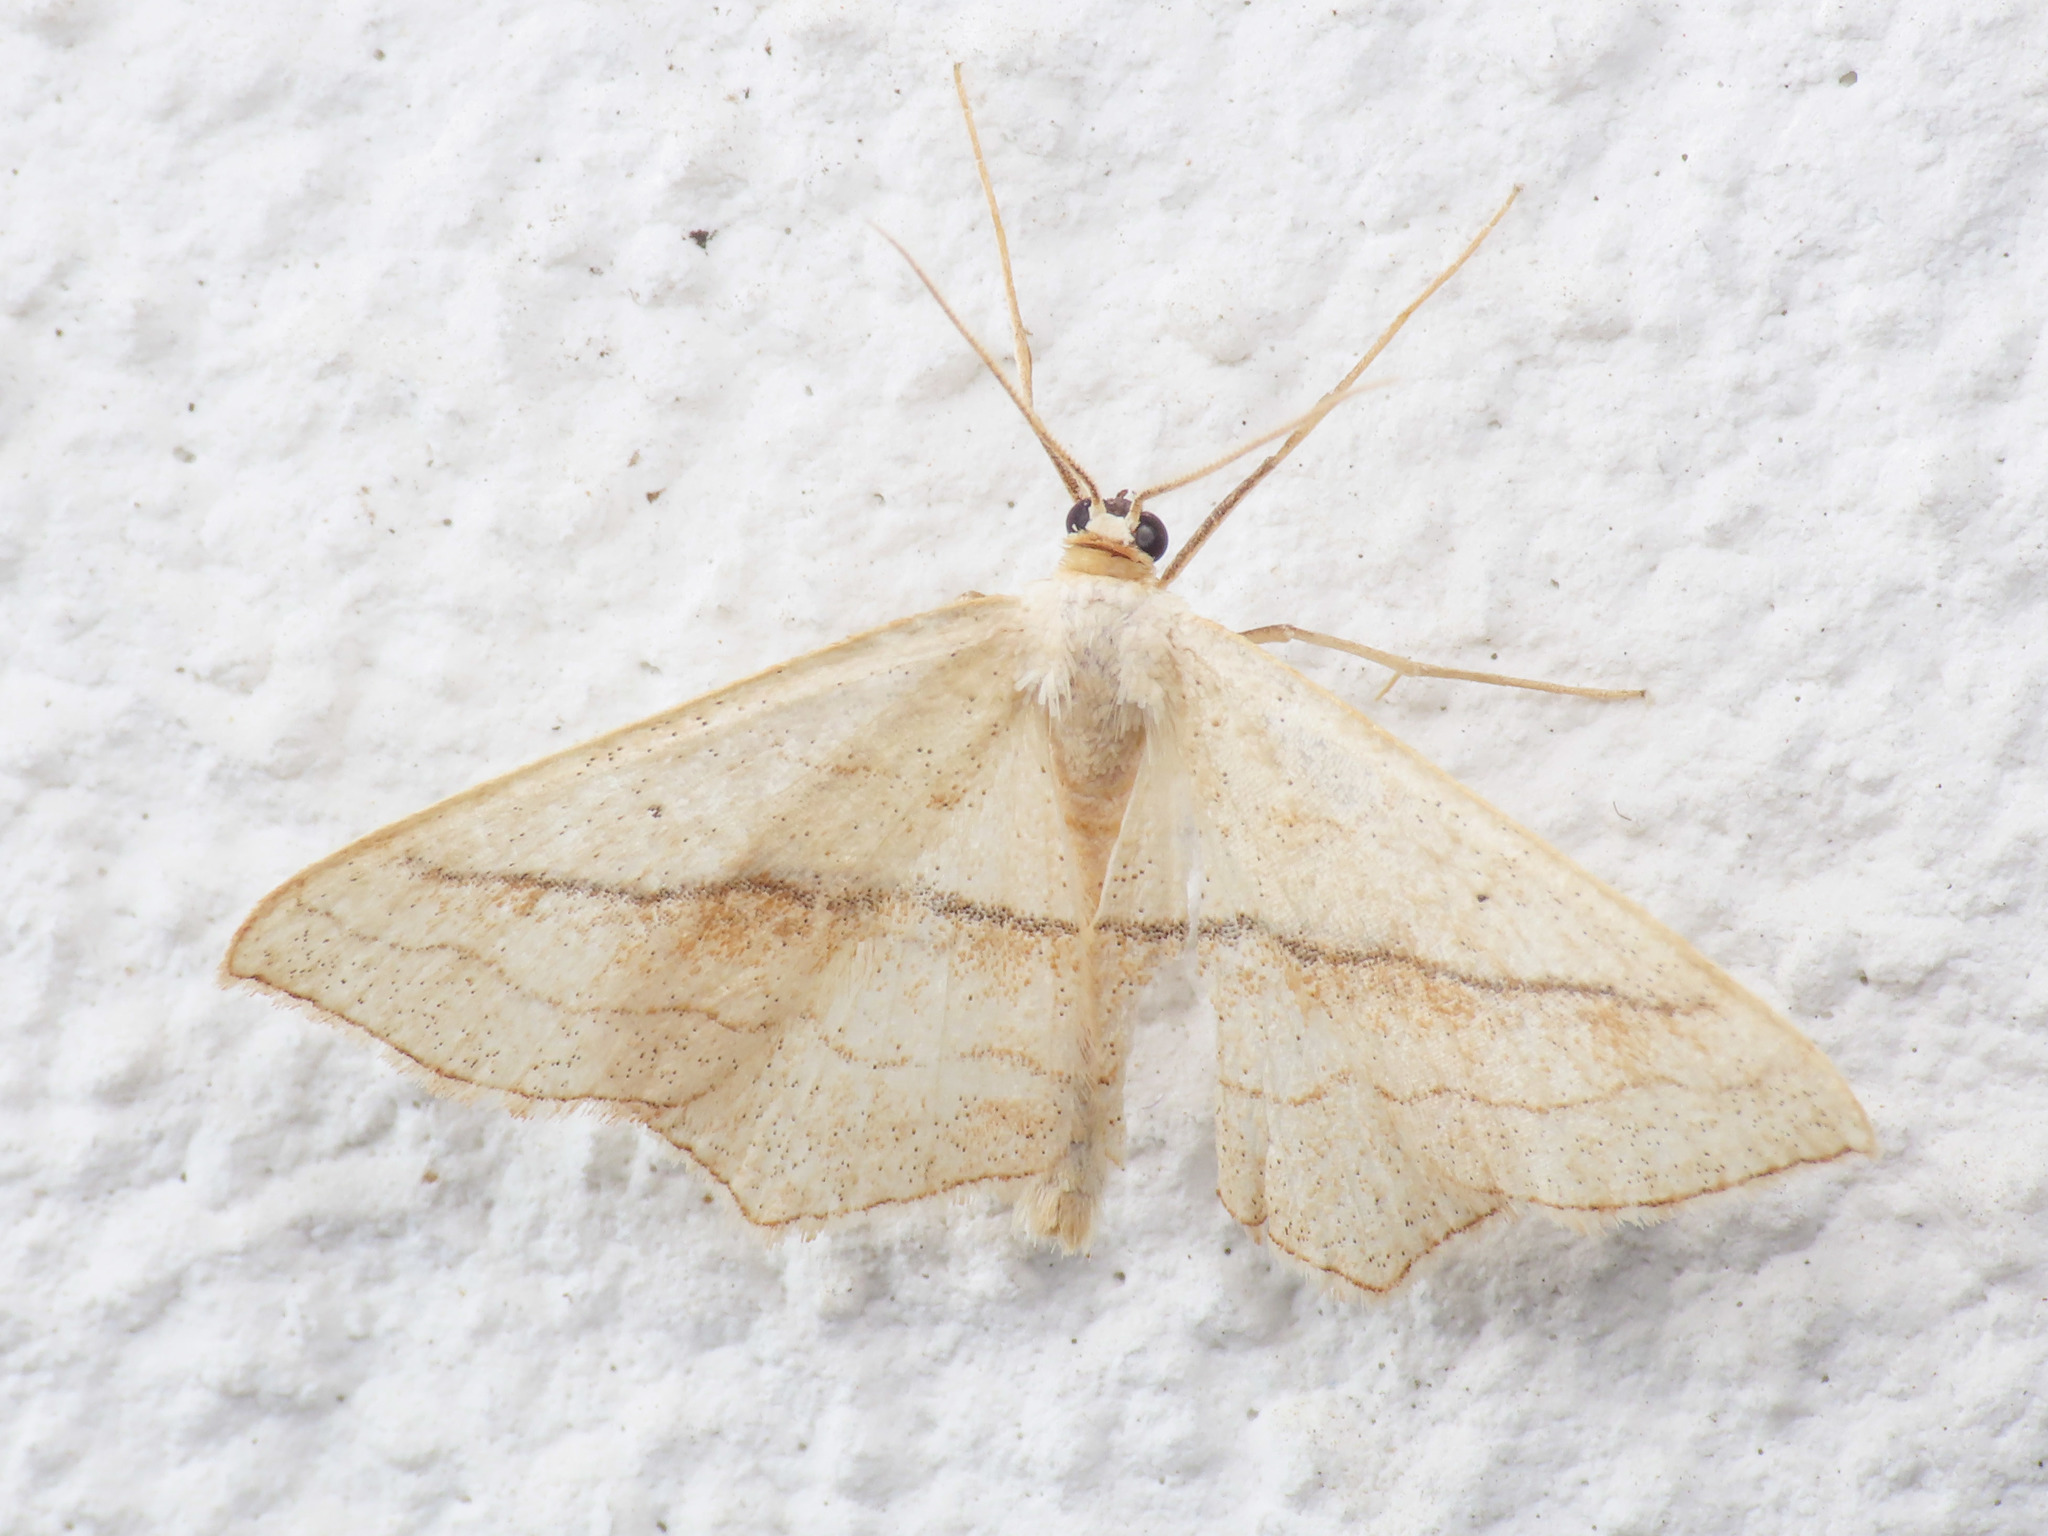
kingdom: Animalia
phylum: Arthropoda
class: Insecta
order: Lepidoptera
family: Geometridae
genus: Scopula
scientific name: Scopula imitaria
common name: Small blood-vein
